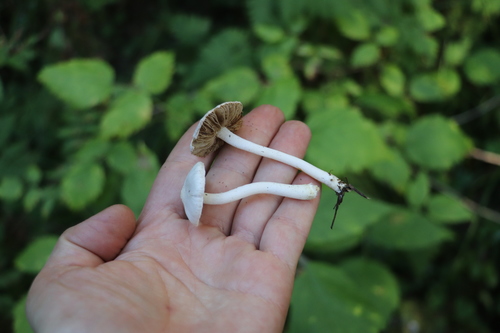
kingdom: Fungi
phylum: Basidiomycota
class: Agaricomycetes
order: Agaricales
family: Inocybaceae
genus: Inocybe
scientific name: Inocybe geophylla
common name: White fibrecap
